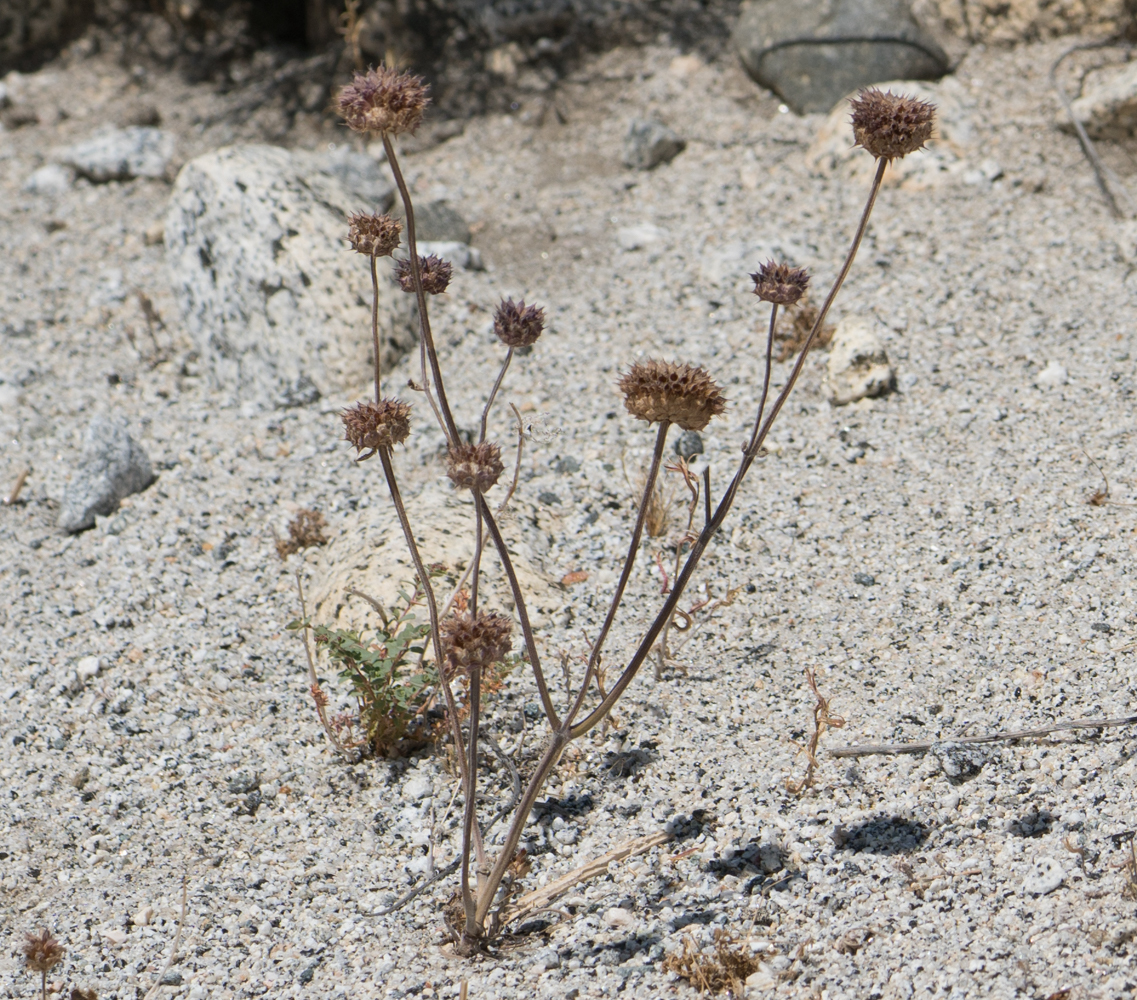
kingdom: Plantae
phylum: Tracheophyta
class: Magnoliopsida
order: Lamiales
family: Lamiaceae
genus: Salvia
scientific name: Salvia columbariae
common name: Chia
